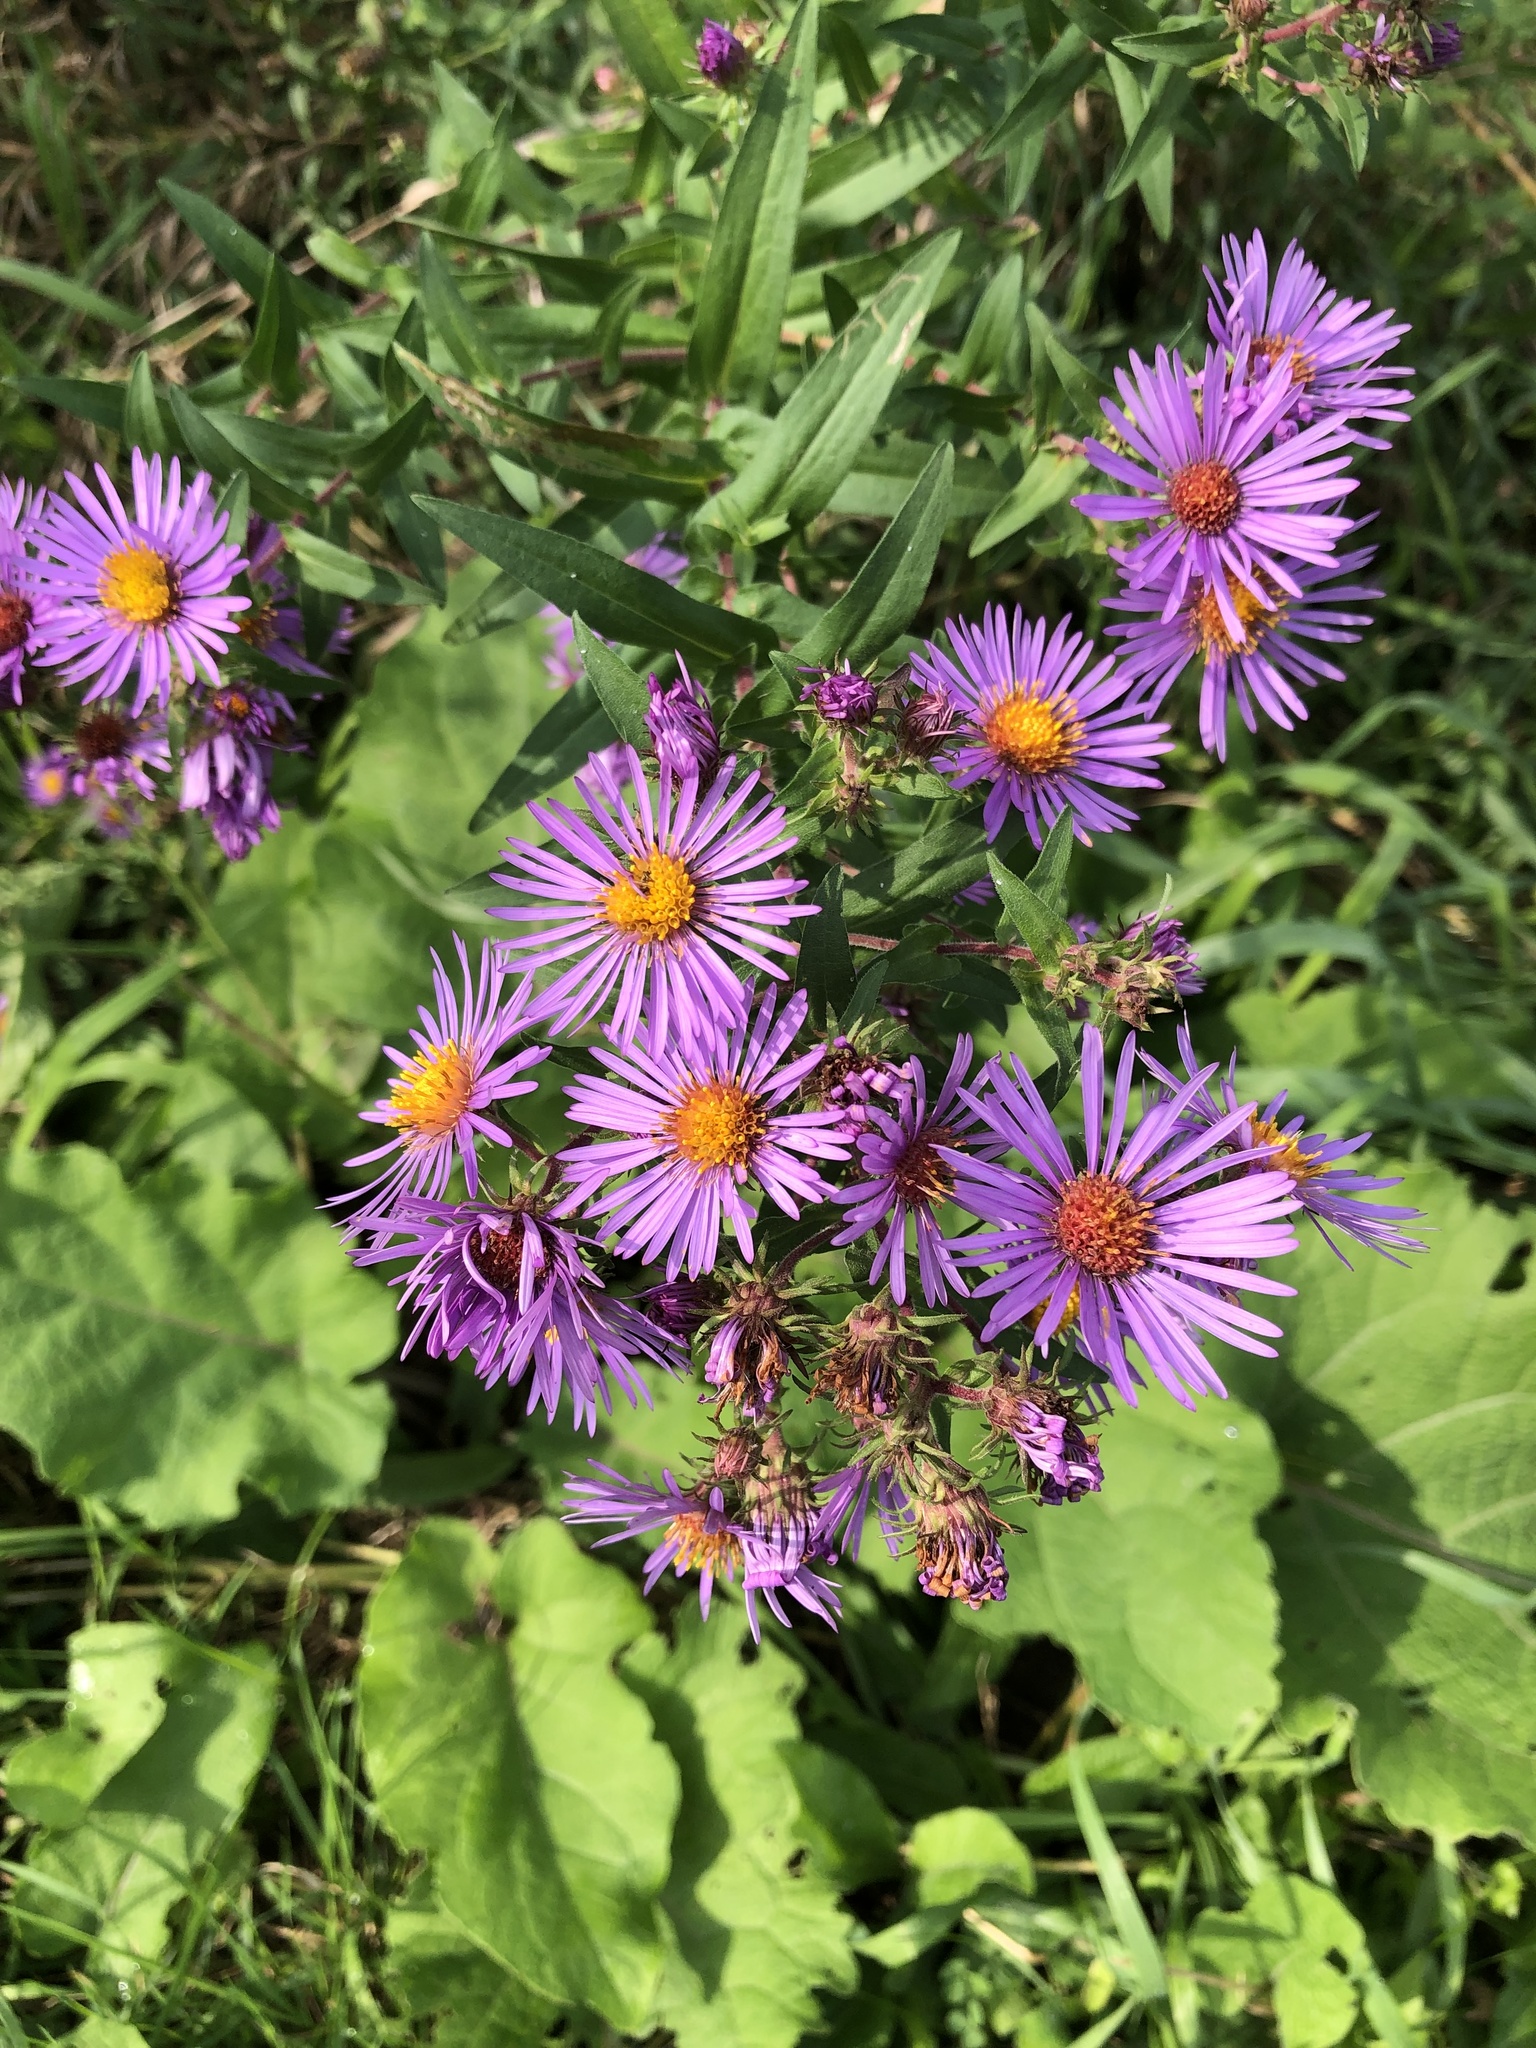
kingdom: Plantae
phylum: Tracheophyta
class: Magnoliopsida
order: Asterales
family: Asteraceae
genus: Symphyotrichum
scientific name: Symphyotrichum novae-angliae
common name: Michaelmas daisy
